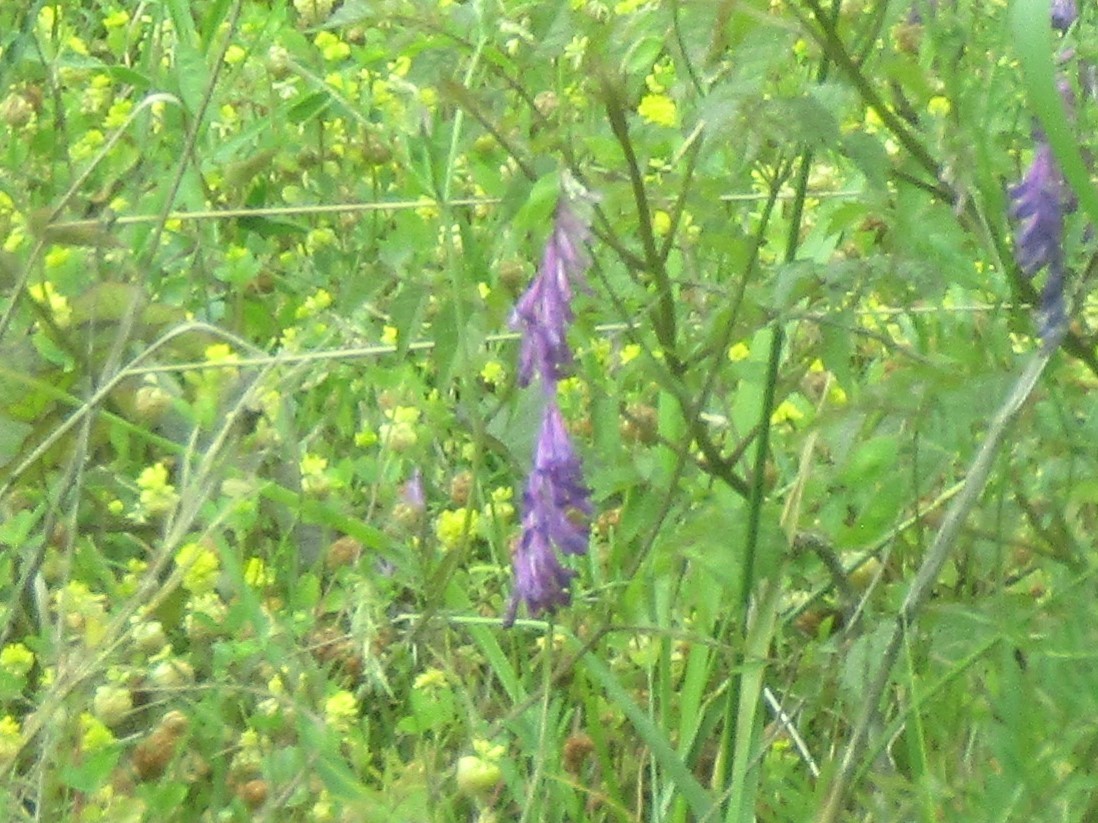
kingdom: Plantae
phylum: Tracheophyta
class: Magnoliopsida
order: Fabales
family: Fabaceae
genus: Vicia
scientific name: Vicia villosa
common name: Fodder vetch
